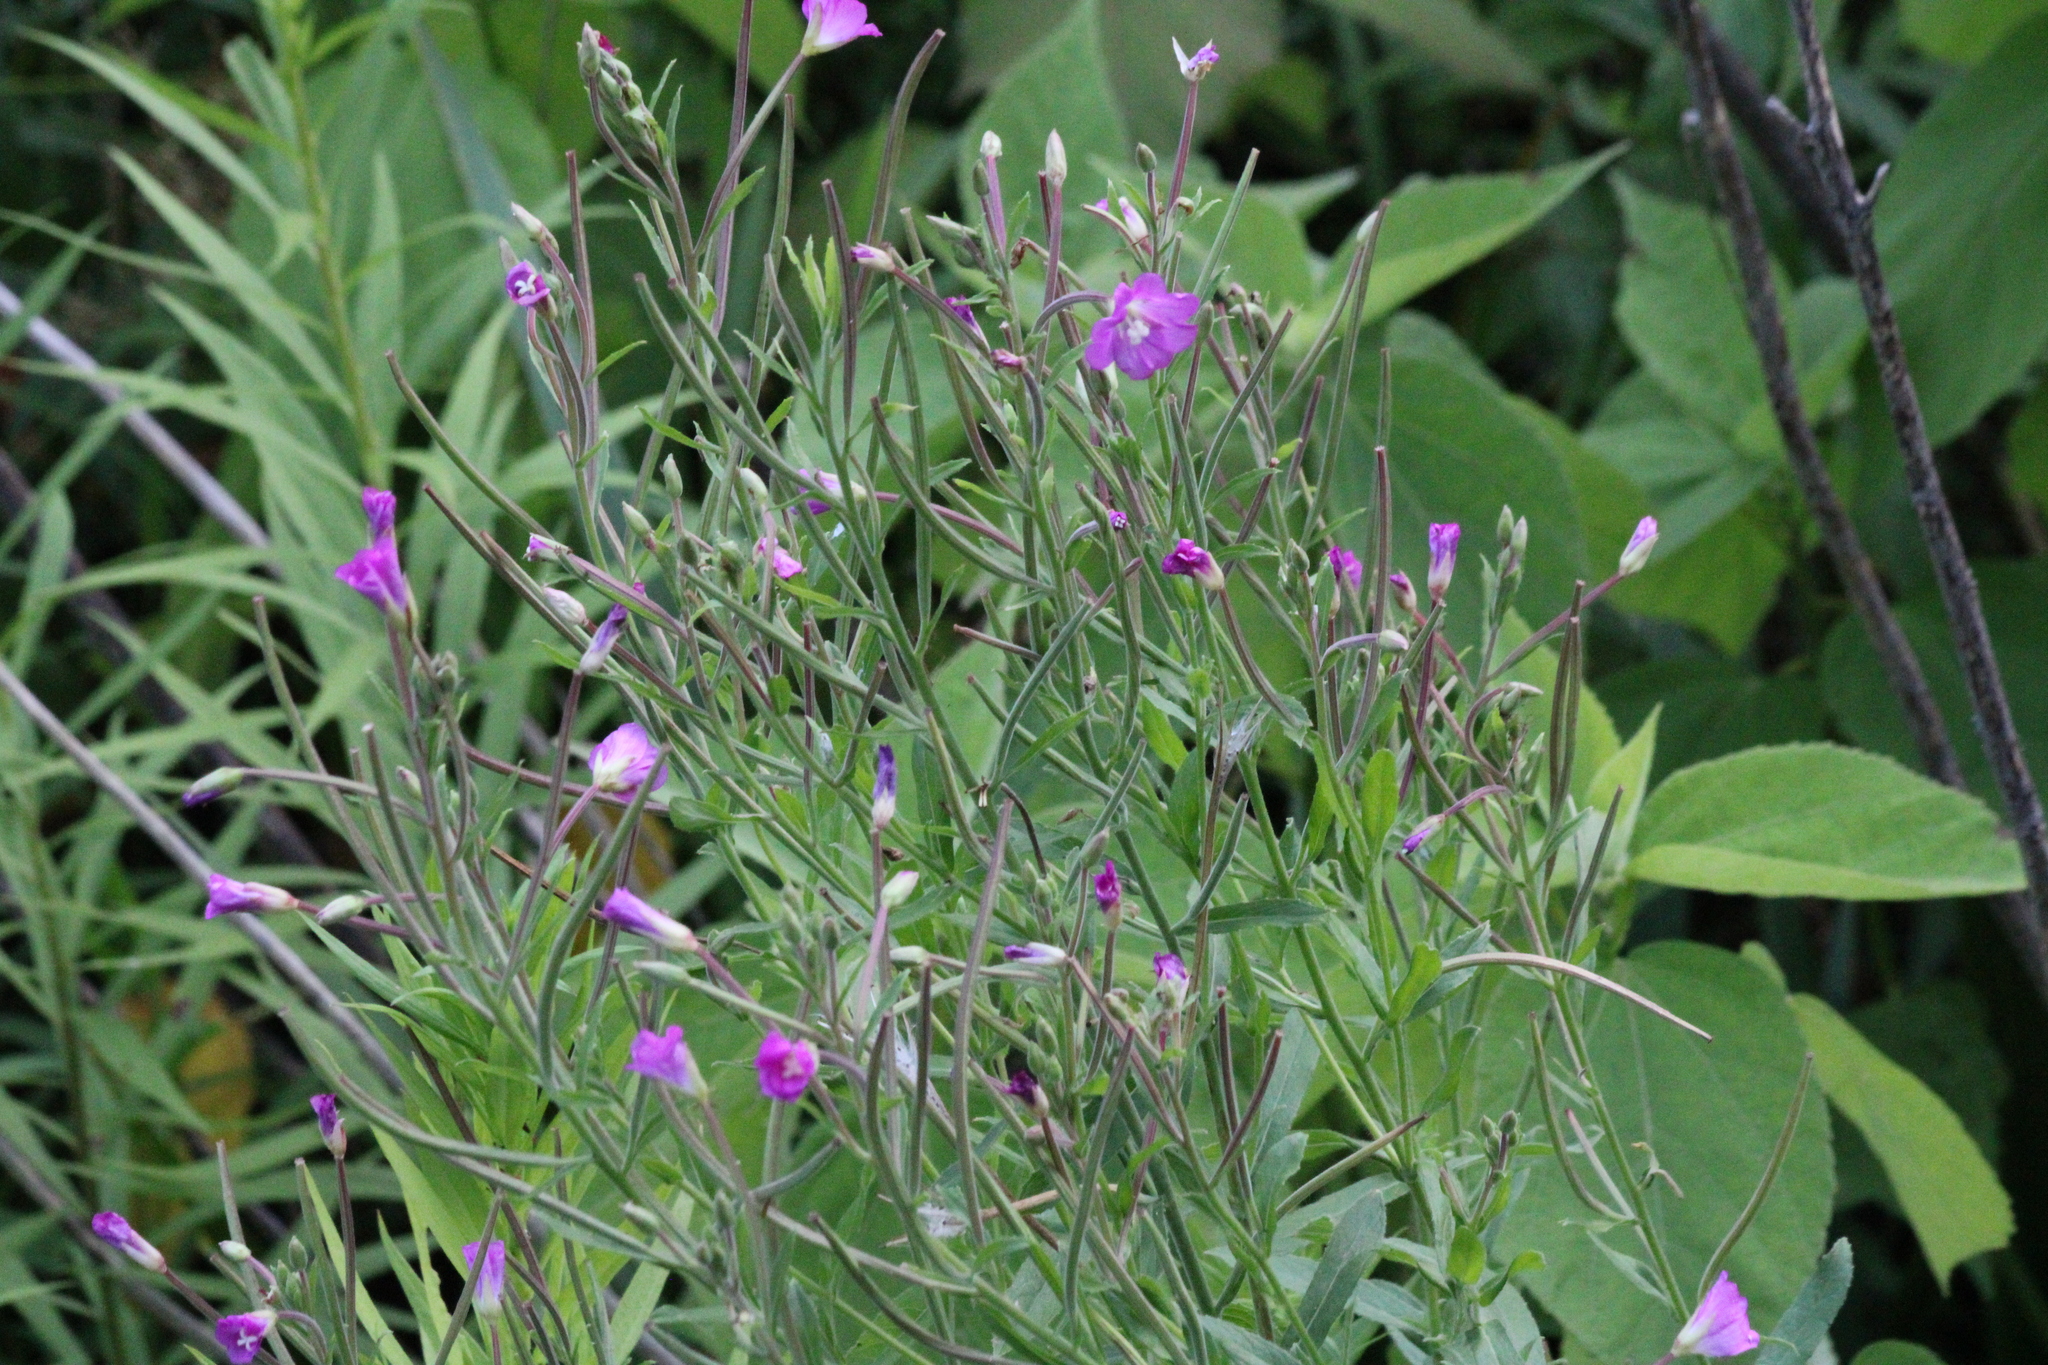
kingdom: Plantae
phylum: Tracheophyta
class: Magnoliopsida
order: Myrtales
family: Onagraceae
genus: Epilobium
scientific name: Epilobium hirsutum
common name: Great willowherb
